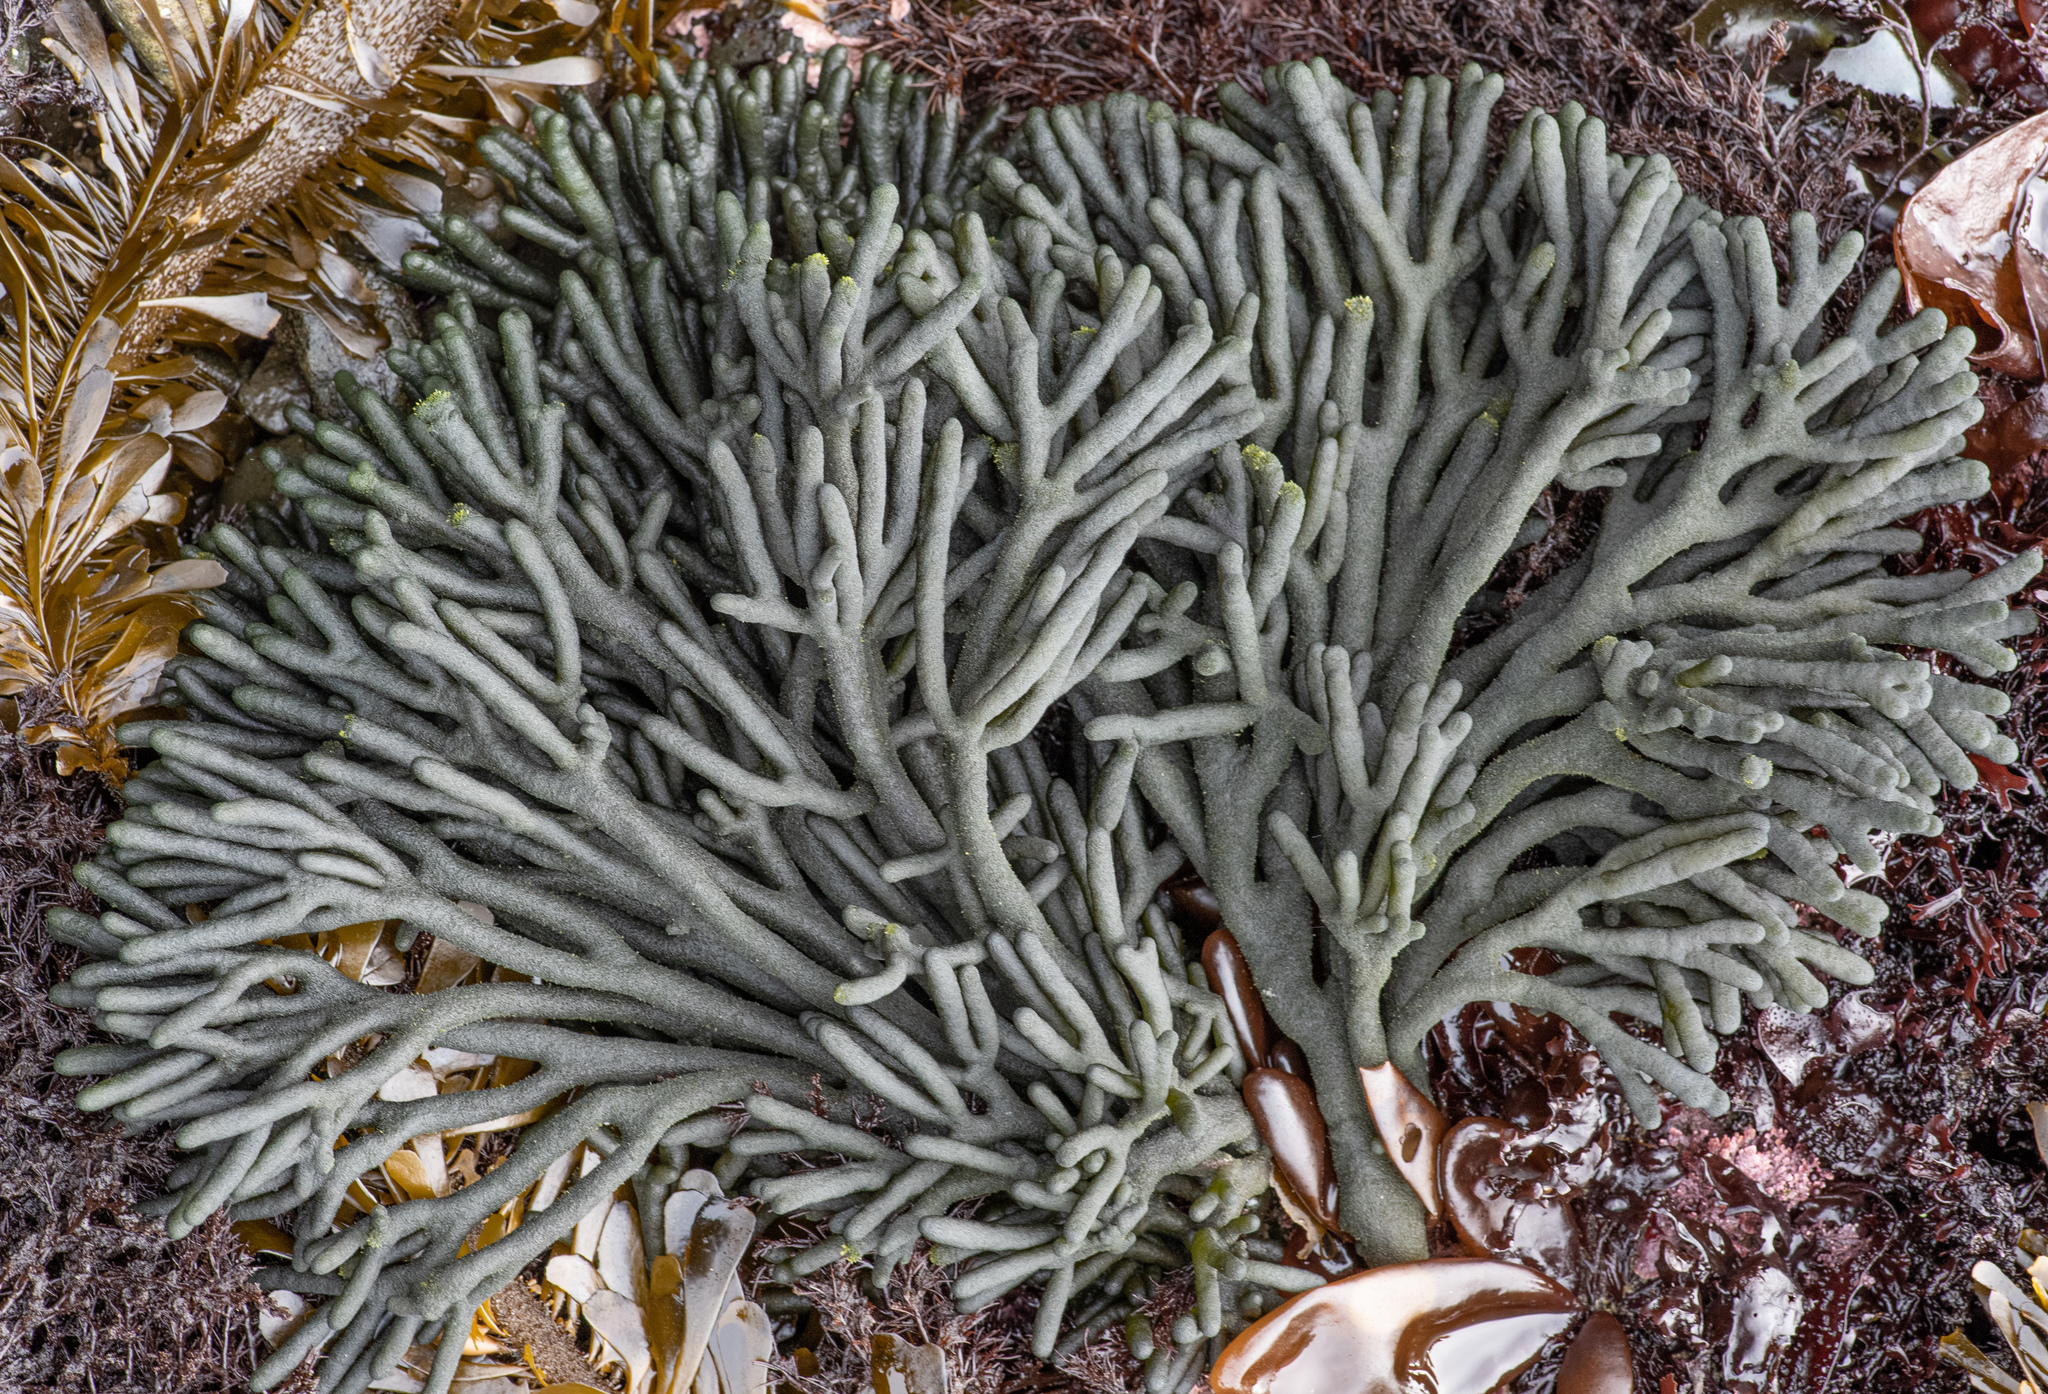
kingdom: Plantae
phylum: Chlorophyta
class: Ulvophyceae
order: Bryopsidales
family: Codiaceae
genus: Codium
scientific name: Codium fragile
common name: Dead man's fingers
